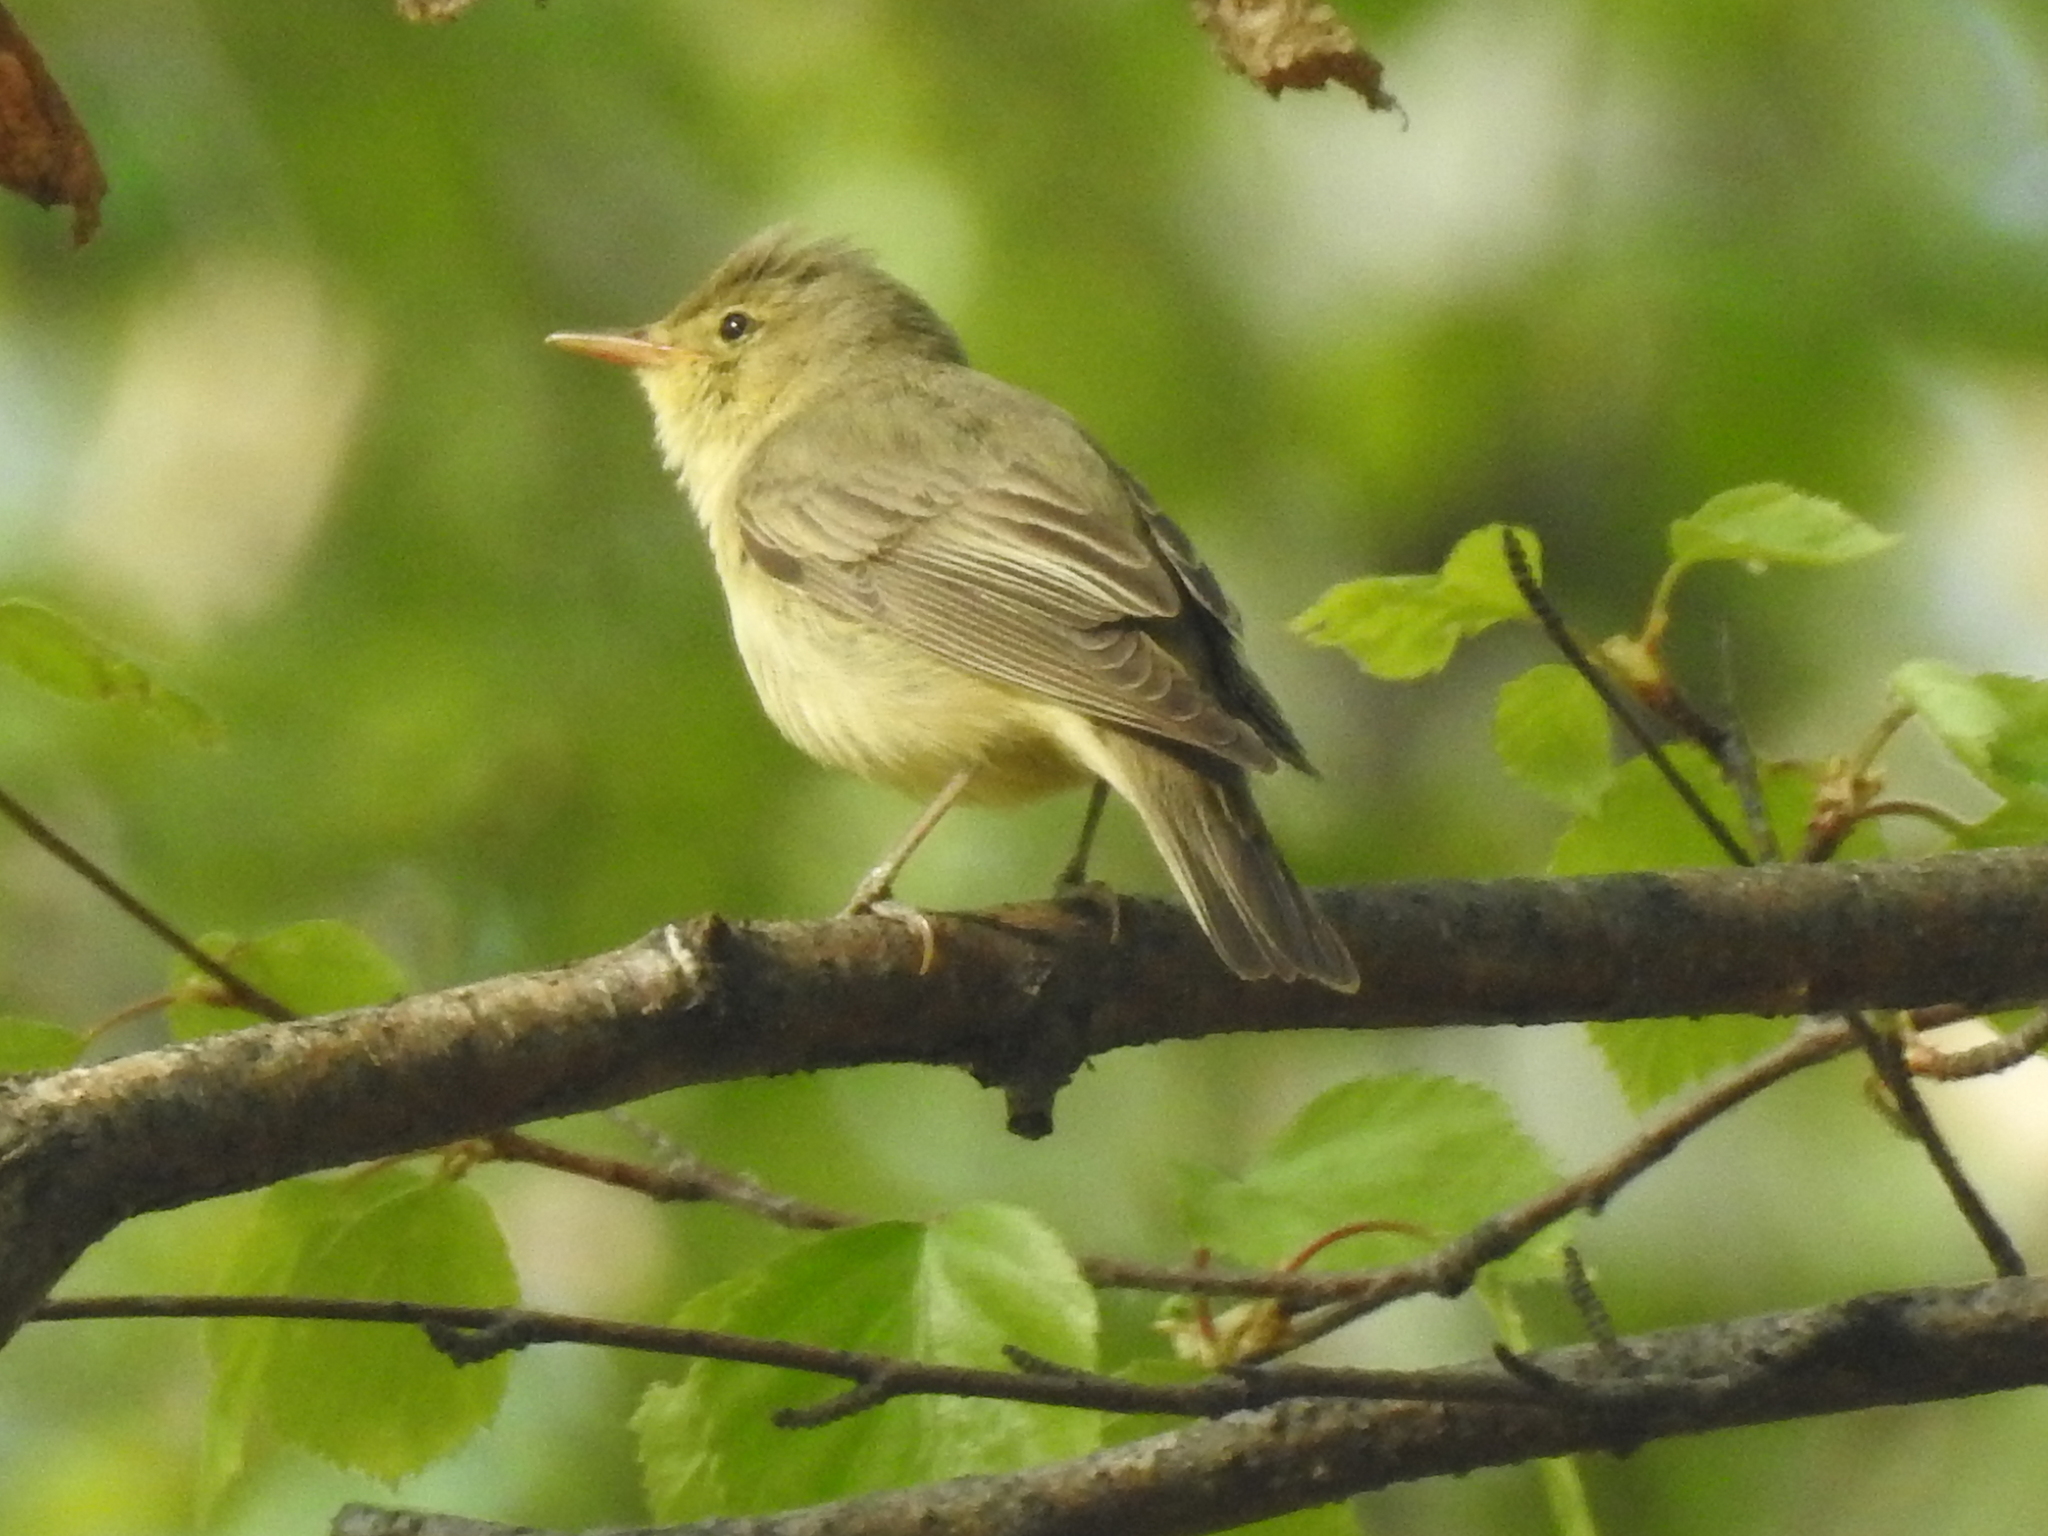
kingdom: Animalia
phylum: Chordata
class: Aves
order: Passeriformes
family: Acrocephalidae
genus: Hippolais
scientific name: Hippolais icterina
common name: Icterine warbler
